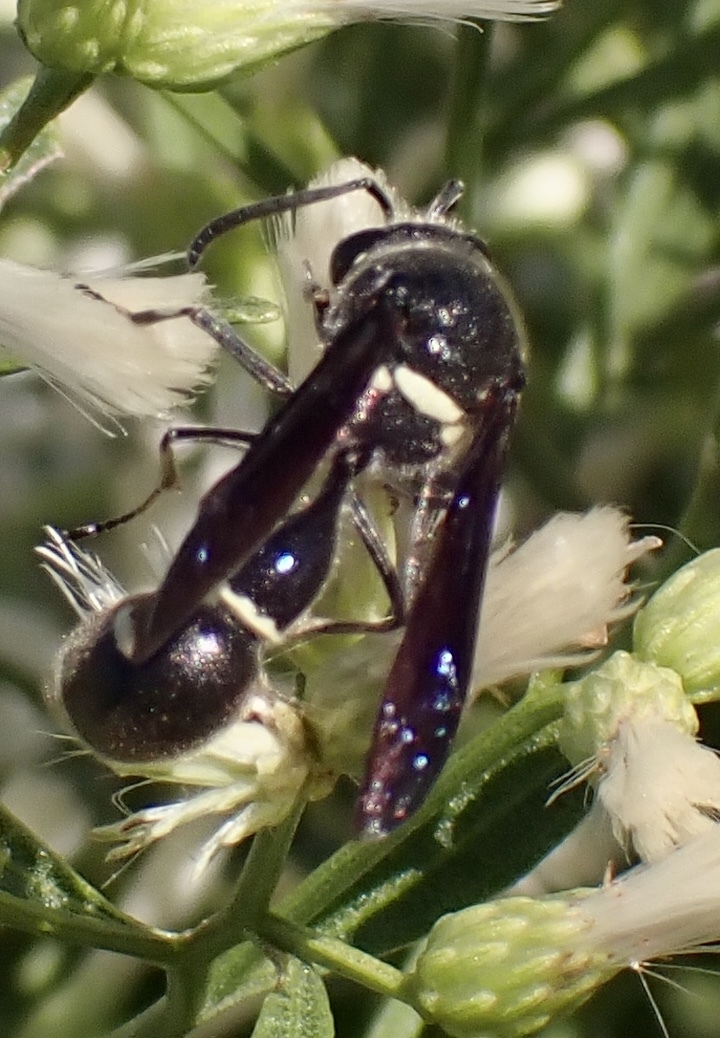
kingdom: Animalia
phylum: Arthropoda
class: Insecta
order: Hymenoptera
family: Vespidae
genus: Eumenes
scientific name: Eumenes fraternus
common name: Fraternal potter wasp
